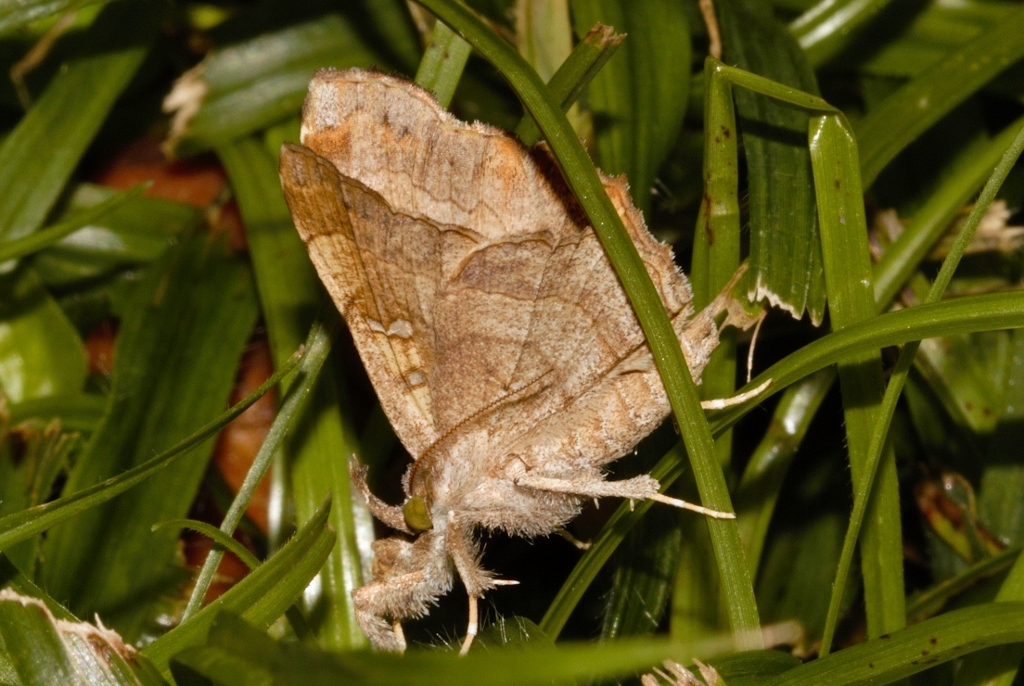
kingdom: Animalia
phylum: Arthropoda
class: Insecta
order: Lepidoptera
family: Erebidae
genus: Egnasia
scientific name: Egnasia vicaria
